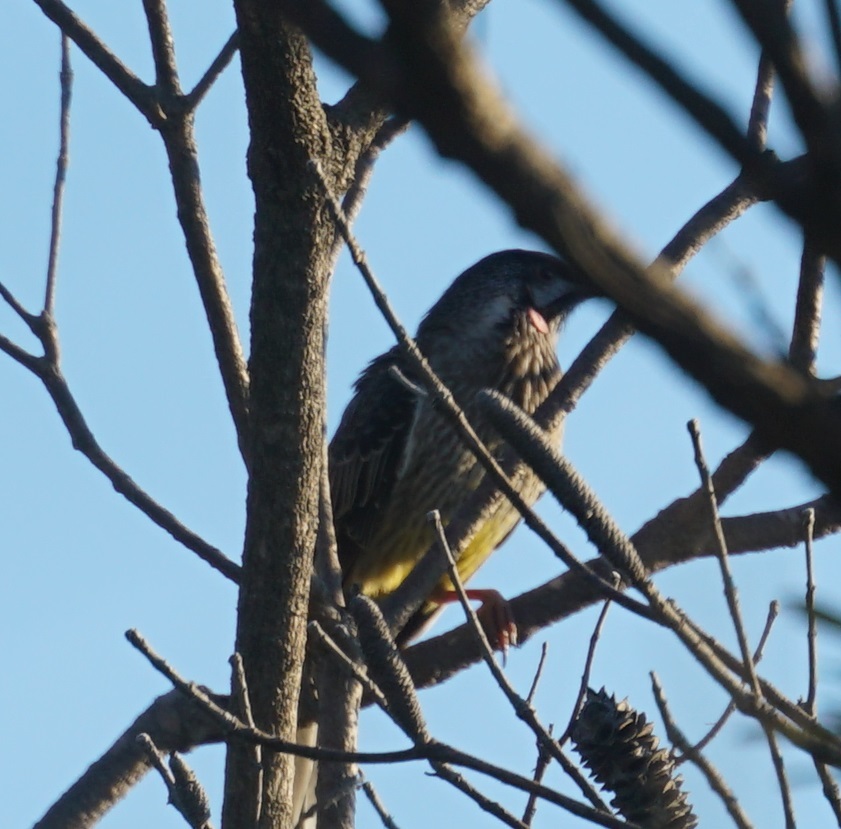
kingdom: Animalia
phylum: Chordata
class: Aves
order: Passeriformes
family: Meliphagidae
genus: Anthochaera
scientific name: Anthochaera carunculata
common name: Red wattlebird
